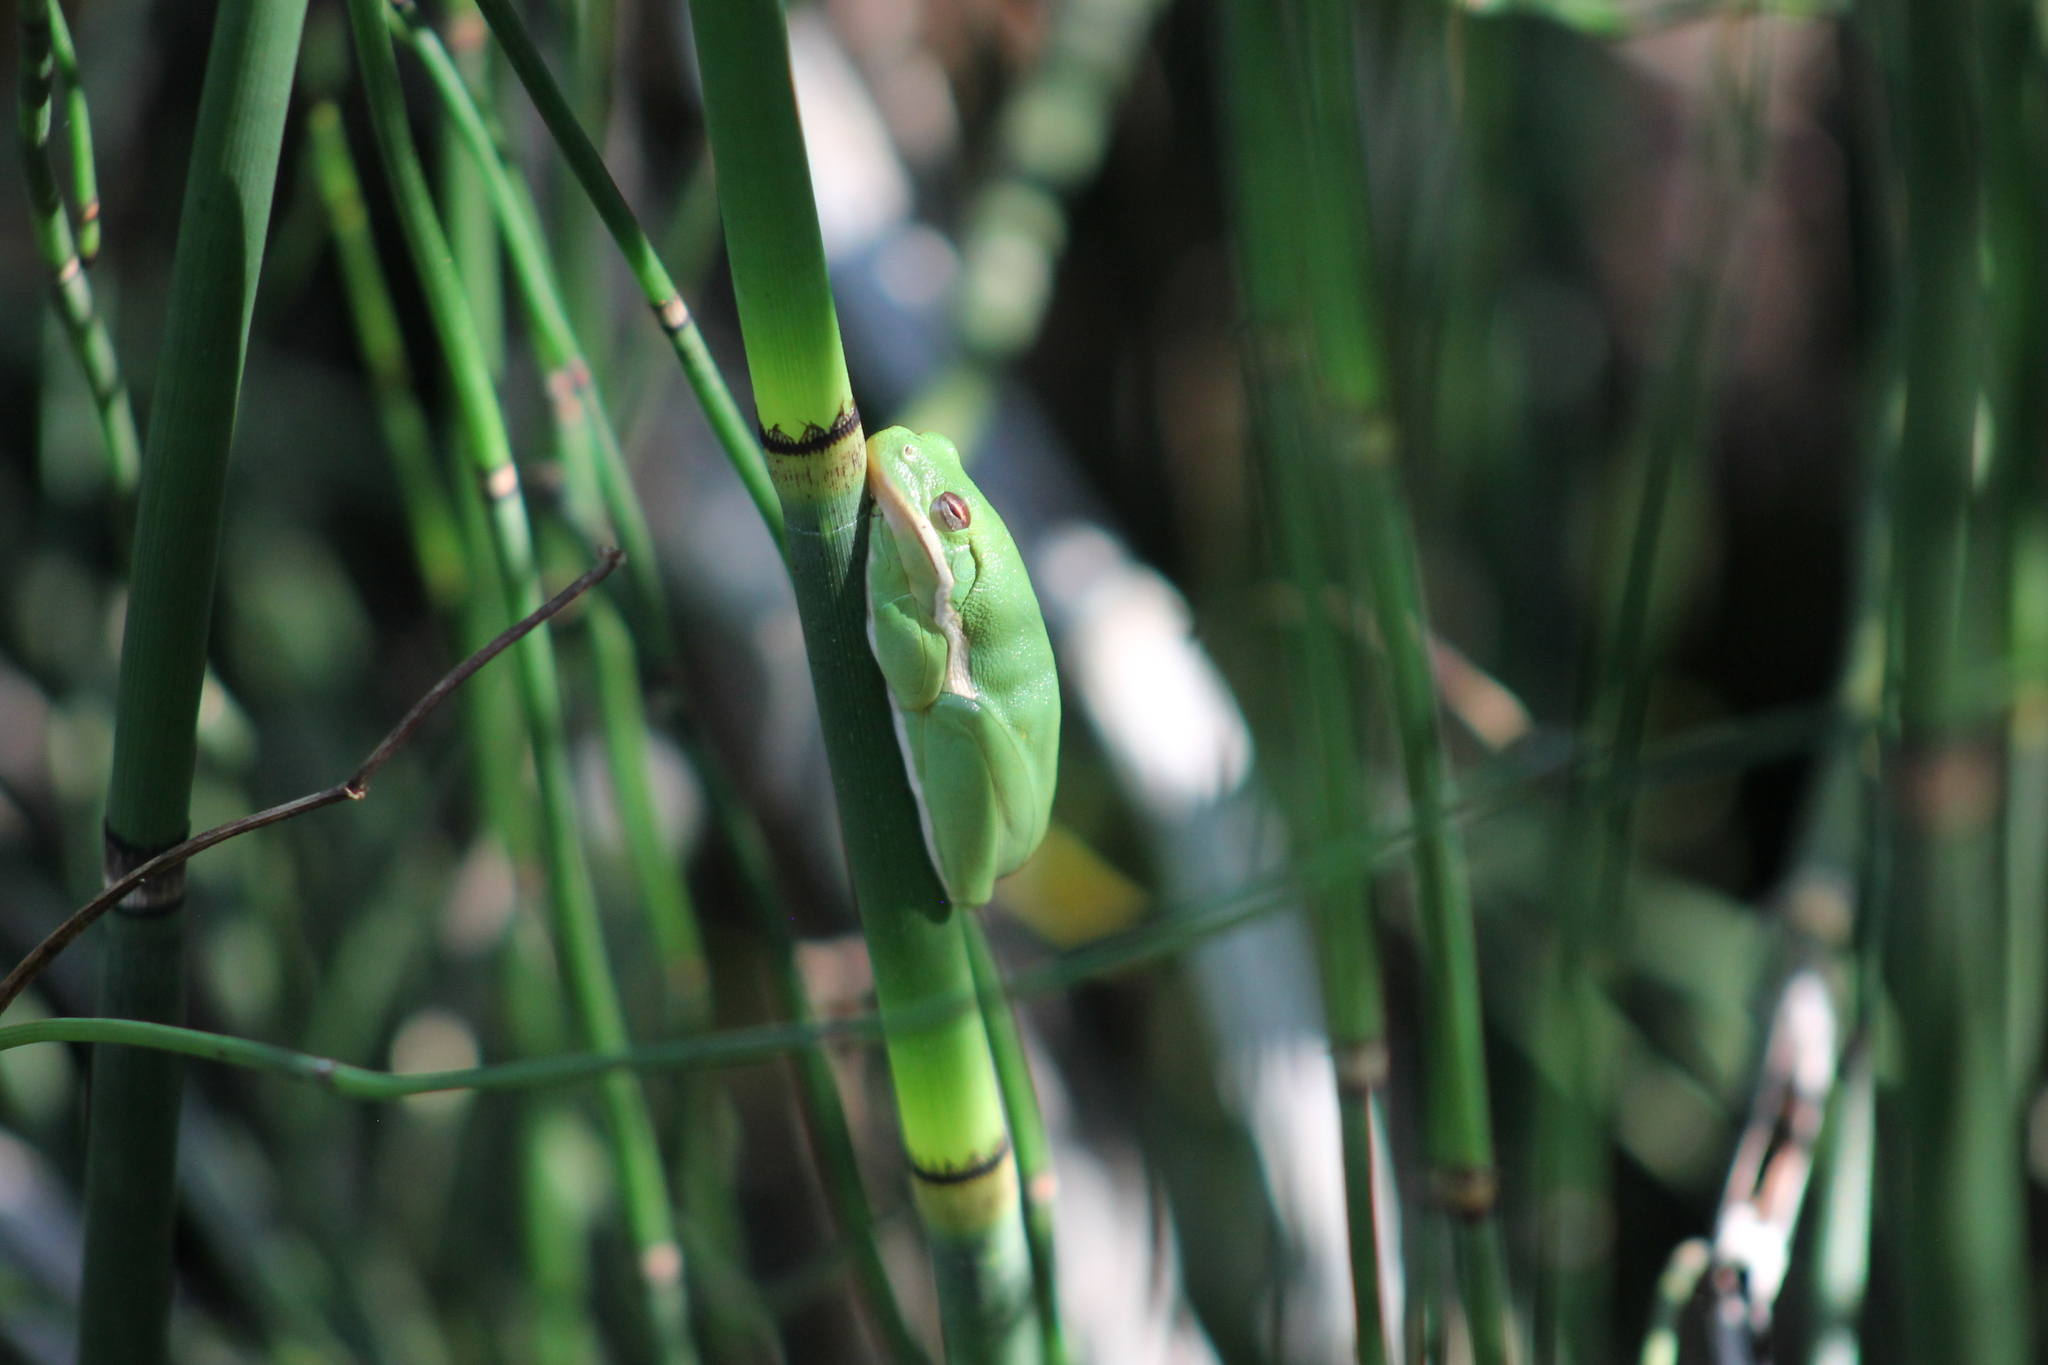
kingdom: Animalia
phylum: Chordata
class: Amphibia
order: Anura
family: Hylidae
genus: Dryophytes
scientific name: Dryophytes cinereus
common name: Green treefrog
